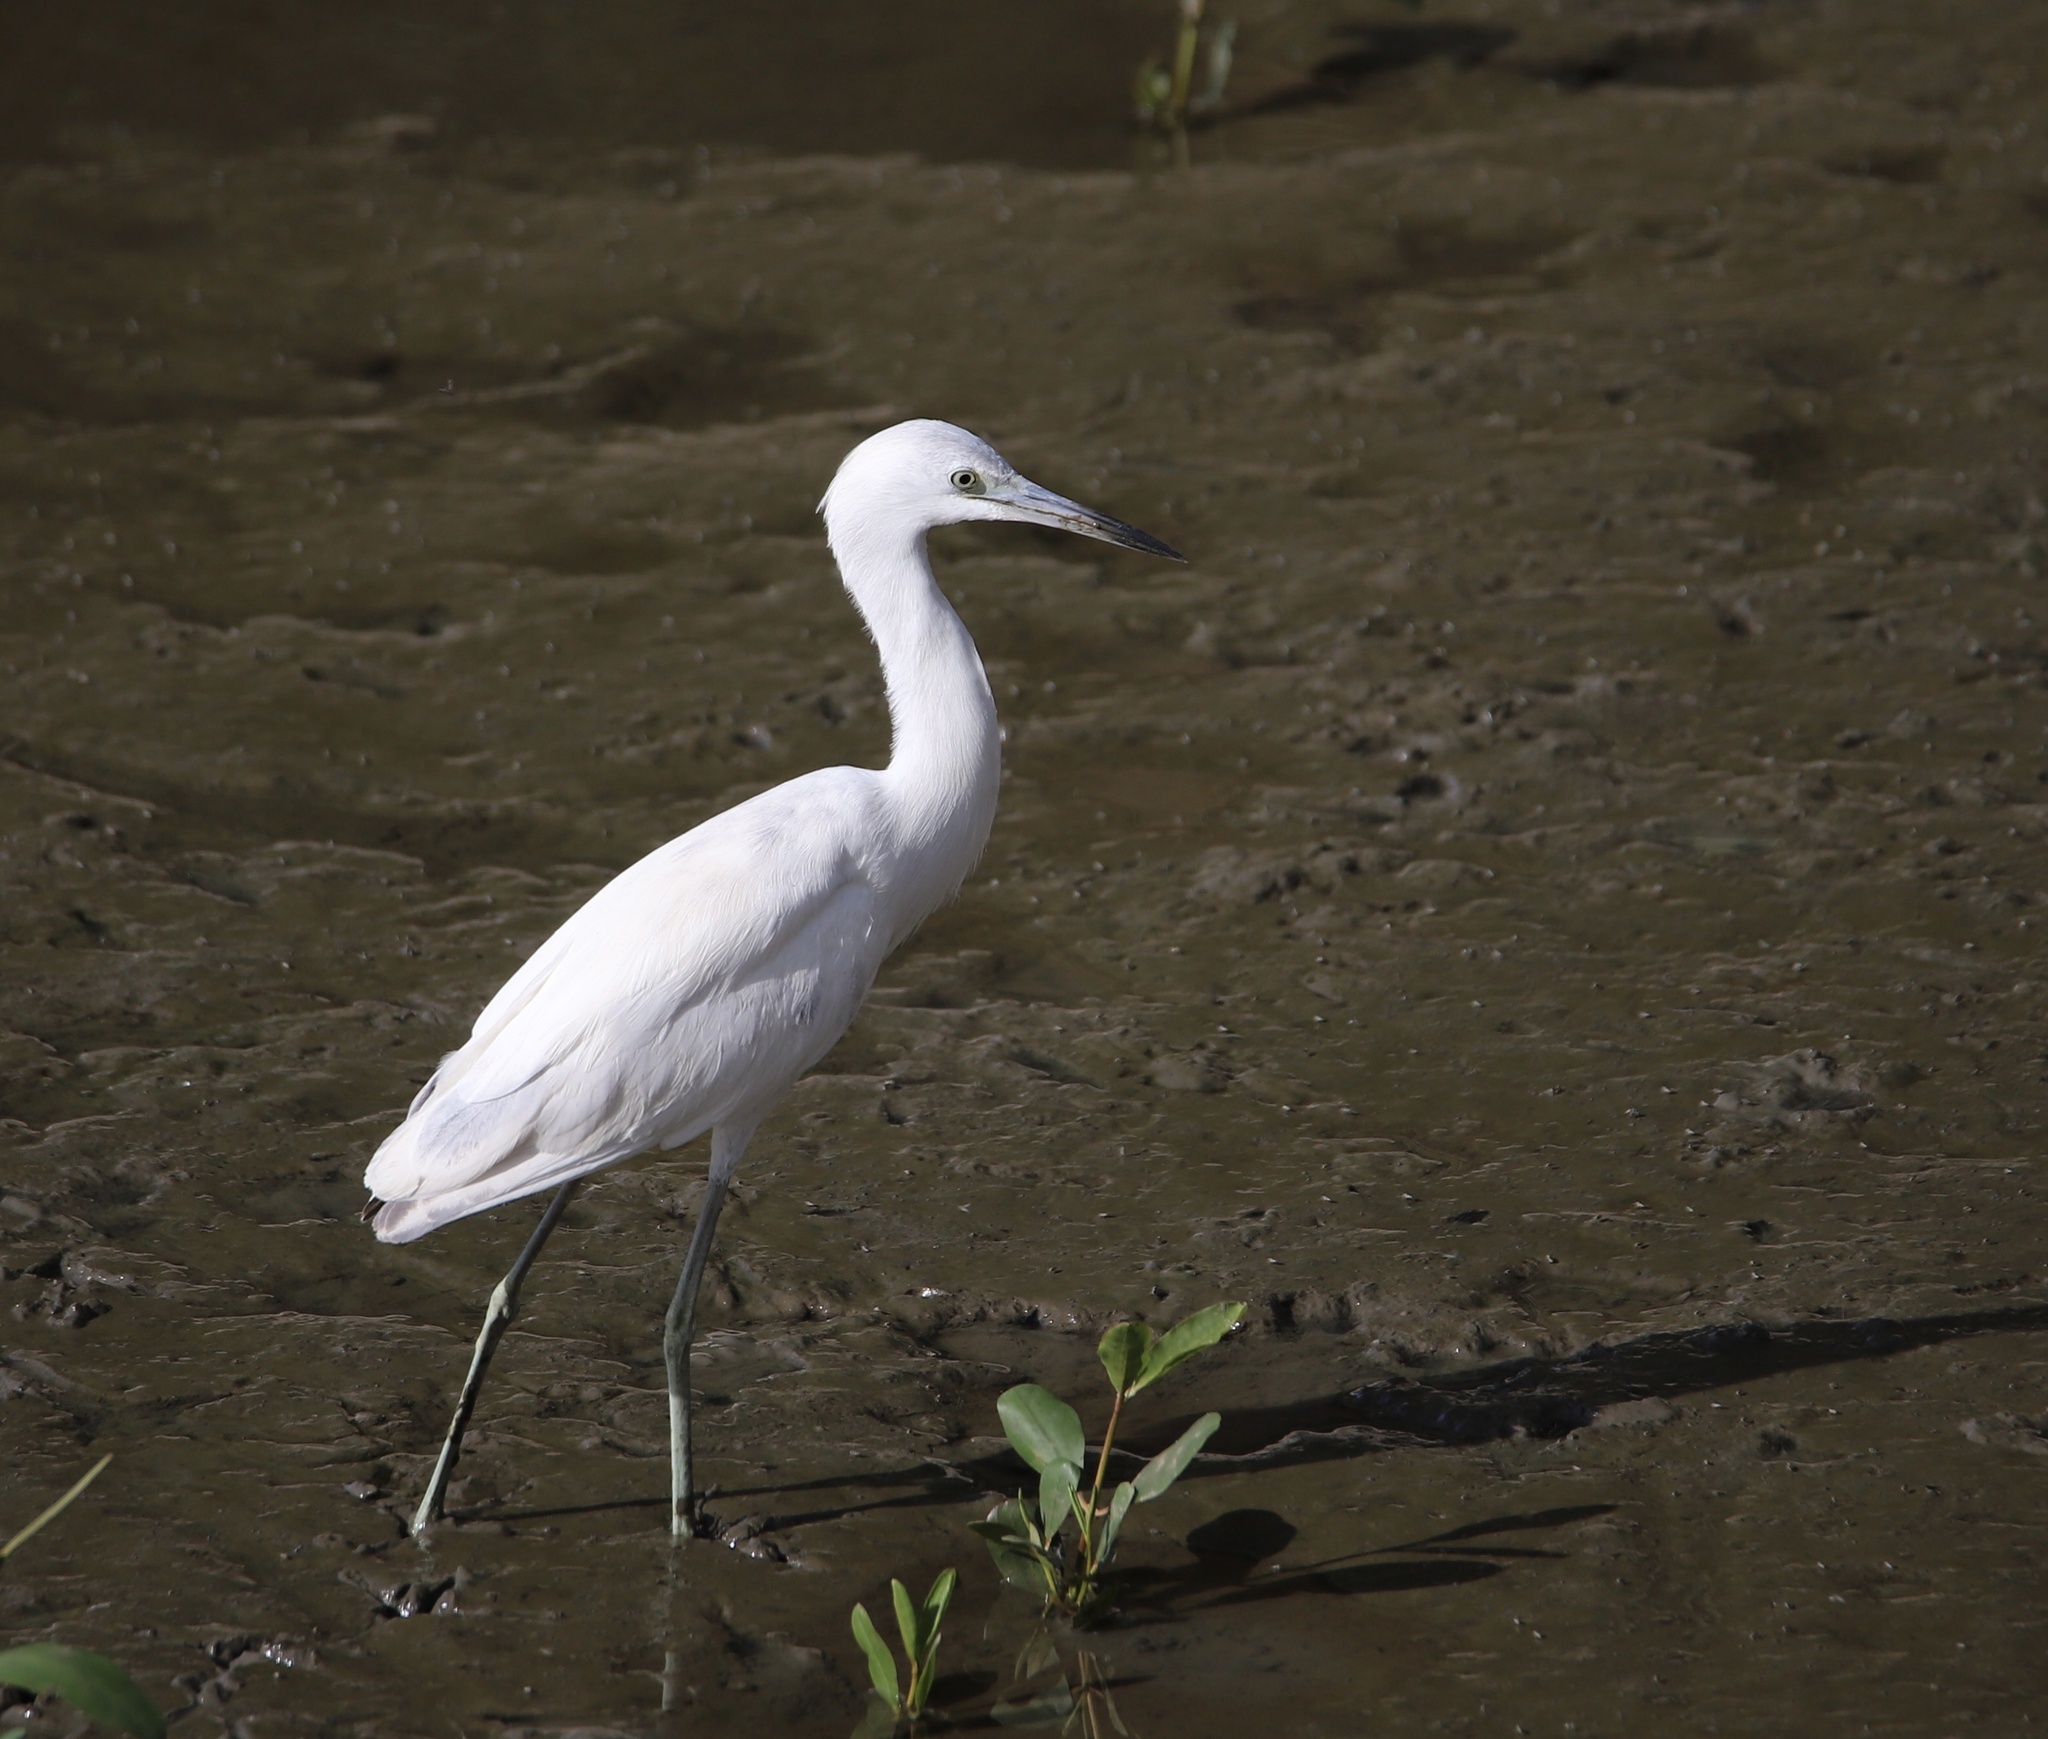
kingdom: Animalia
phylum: Chordata
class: Aves
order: Pelecaniformes
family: Ardeidae
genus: Egretta
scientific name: Egretta caerulea
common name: Little blue heron
